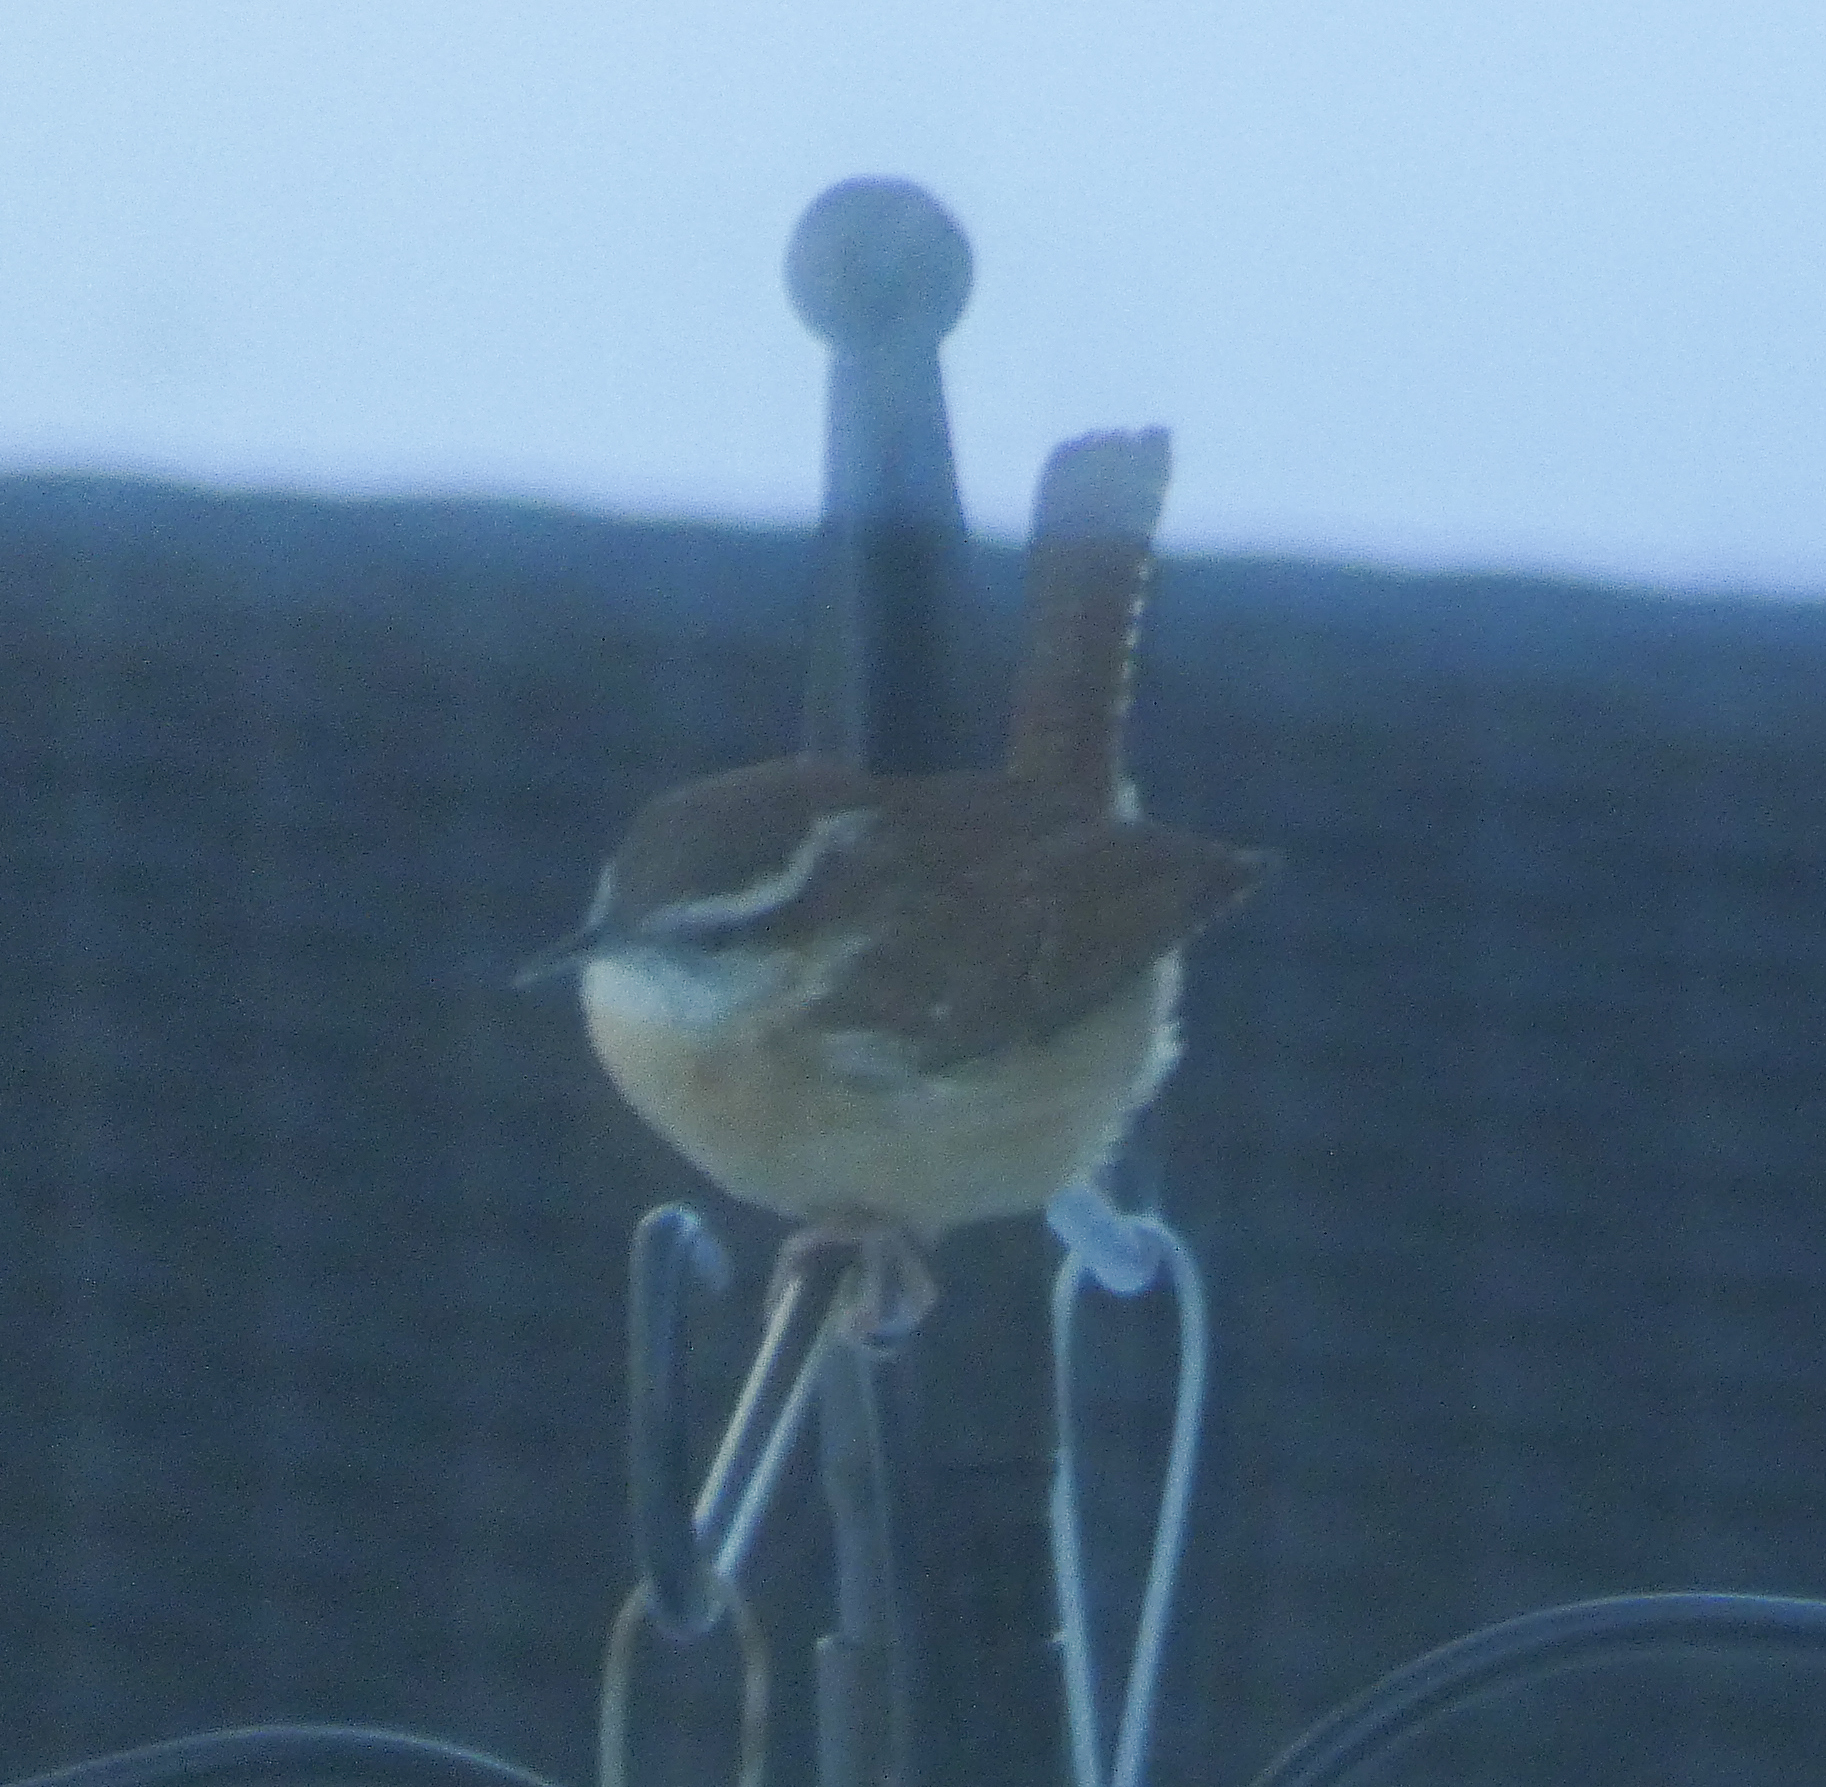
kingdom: Animalia
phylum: Chordata
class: Aves
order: Passeriformes
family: Troglodytidae
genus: Thryothorus
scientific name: Thryothorus ludovicianus
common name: Carolina wren
